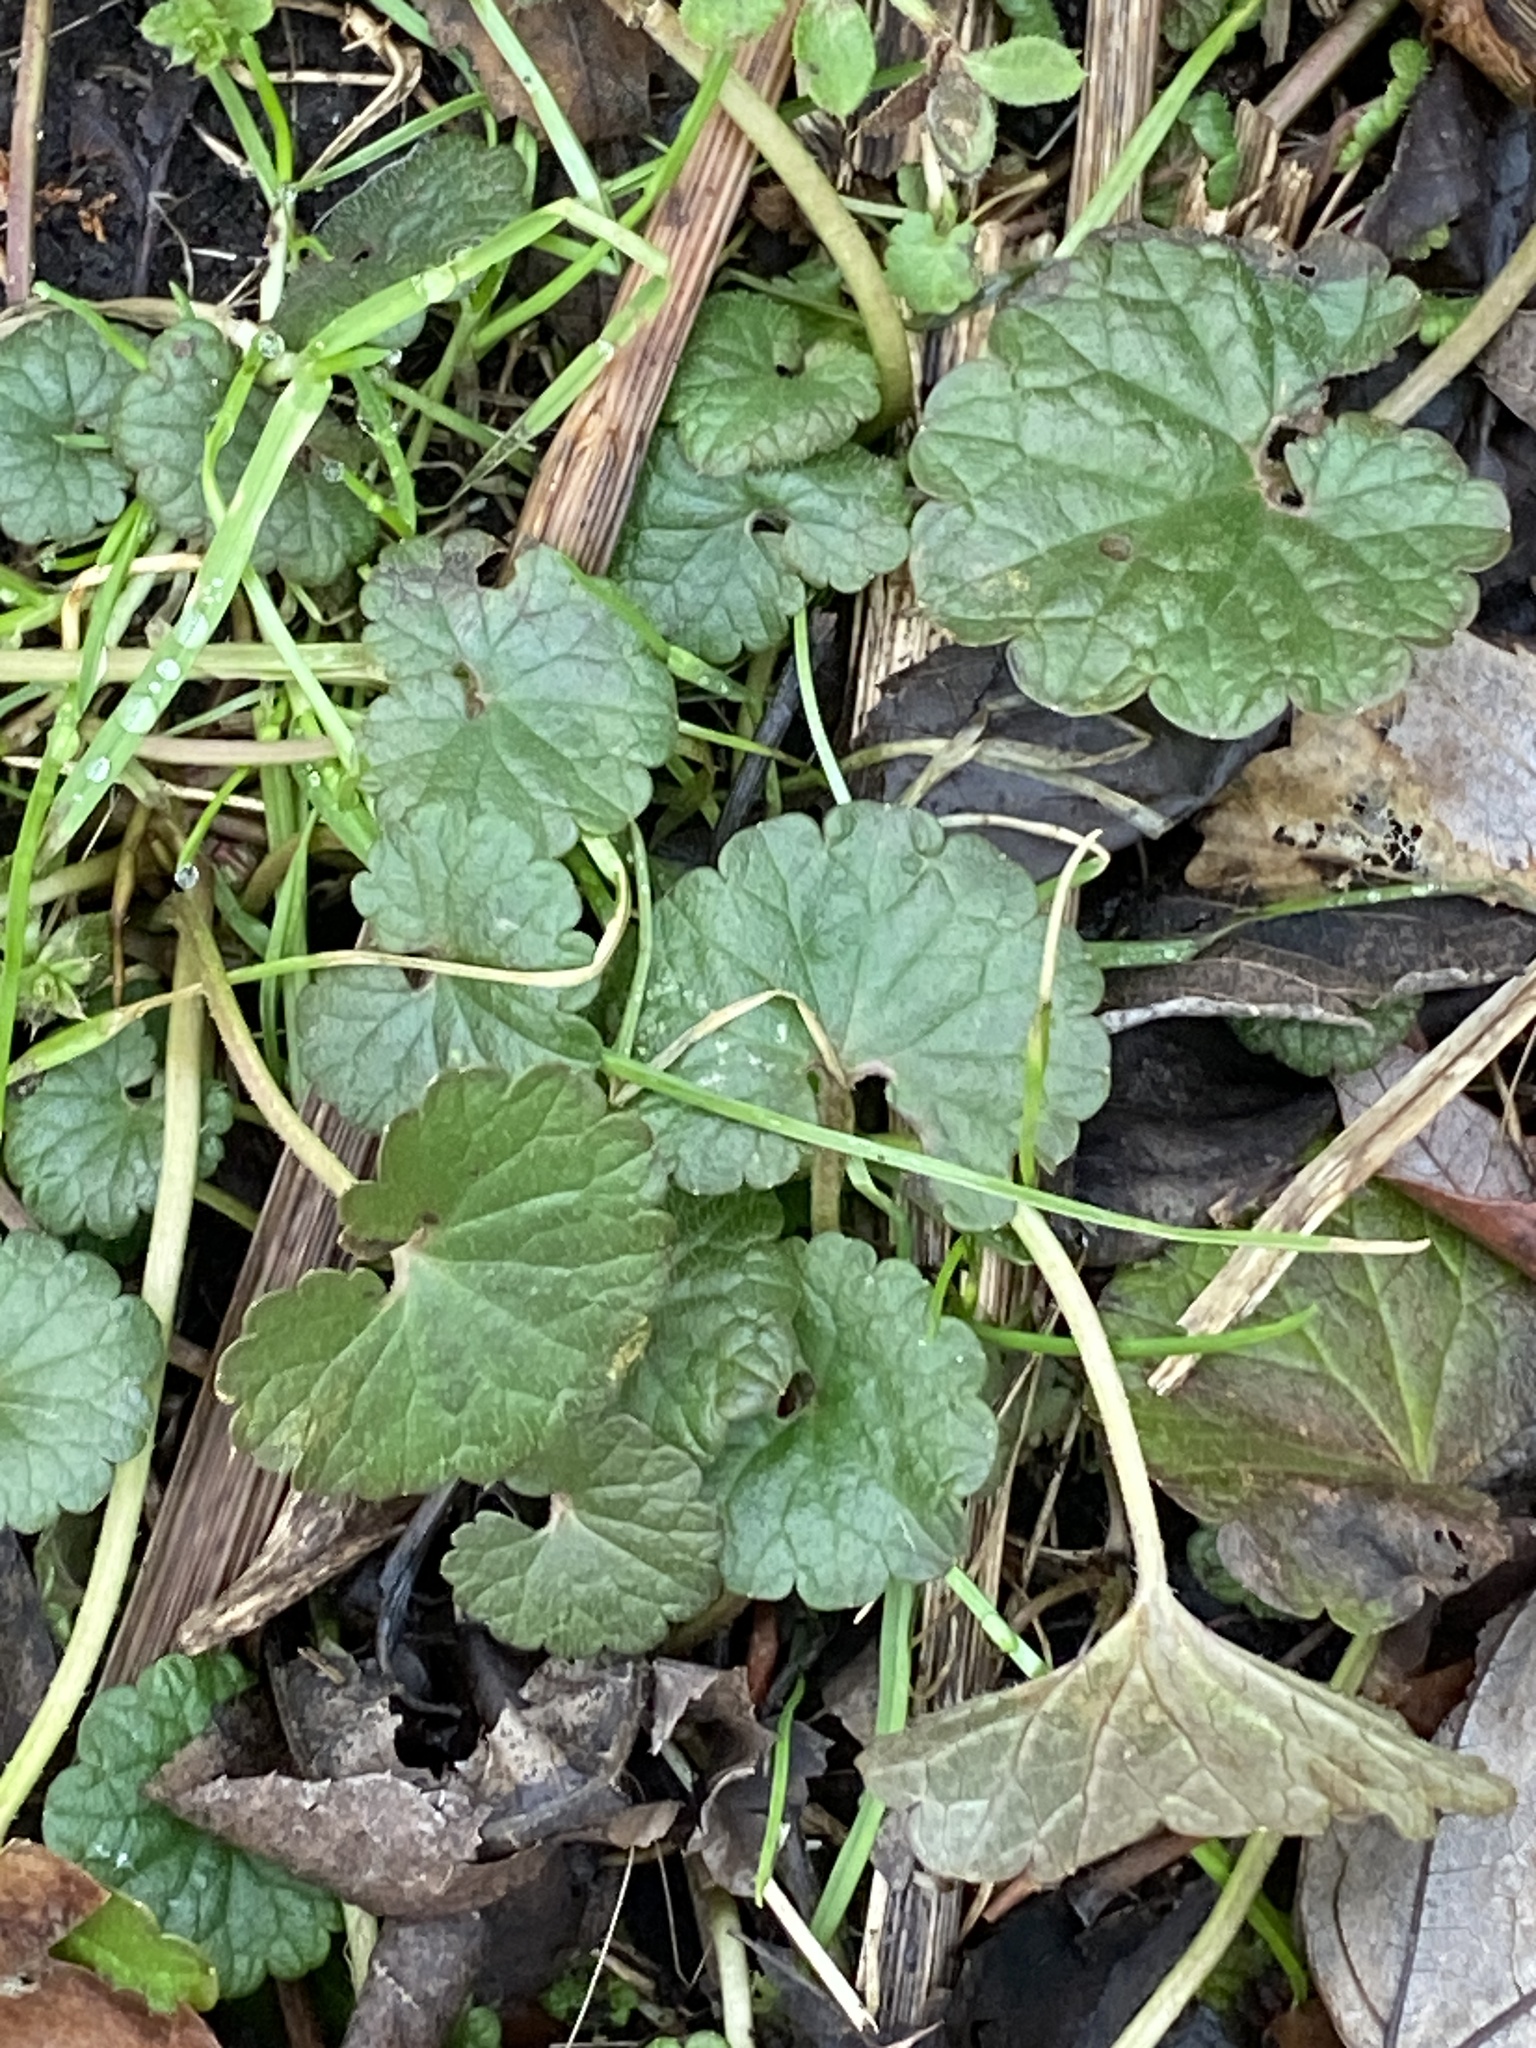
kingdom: Plantae
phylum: Tracheophyta
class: Magnoliopsida
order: Lamiales
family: Lamiaceae
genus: Glechoma
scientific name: Glechoma hederacea
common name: Ground ivy
